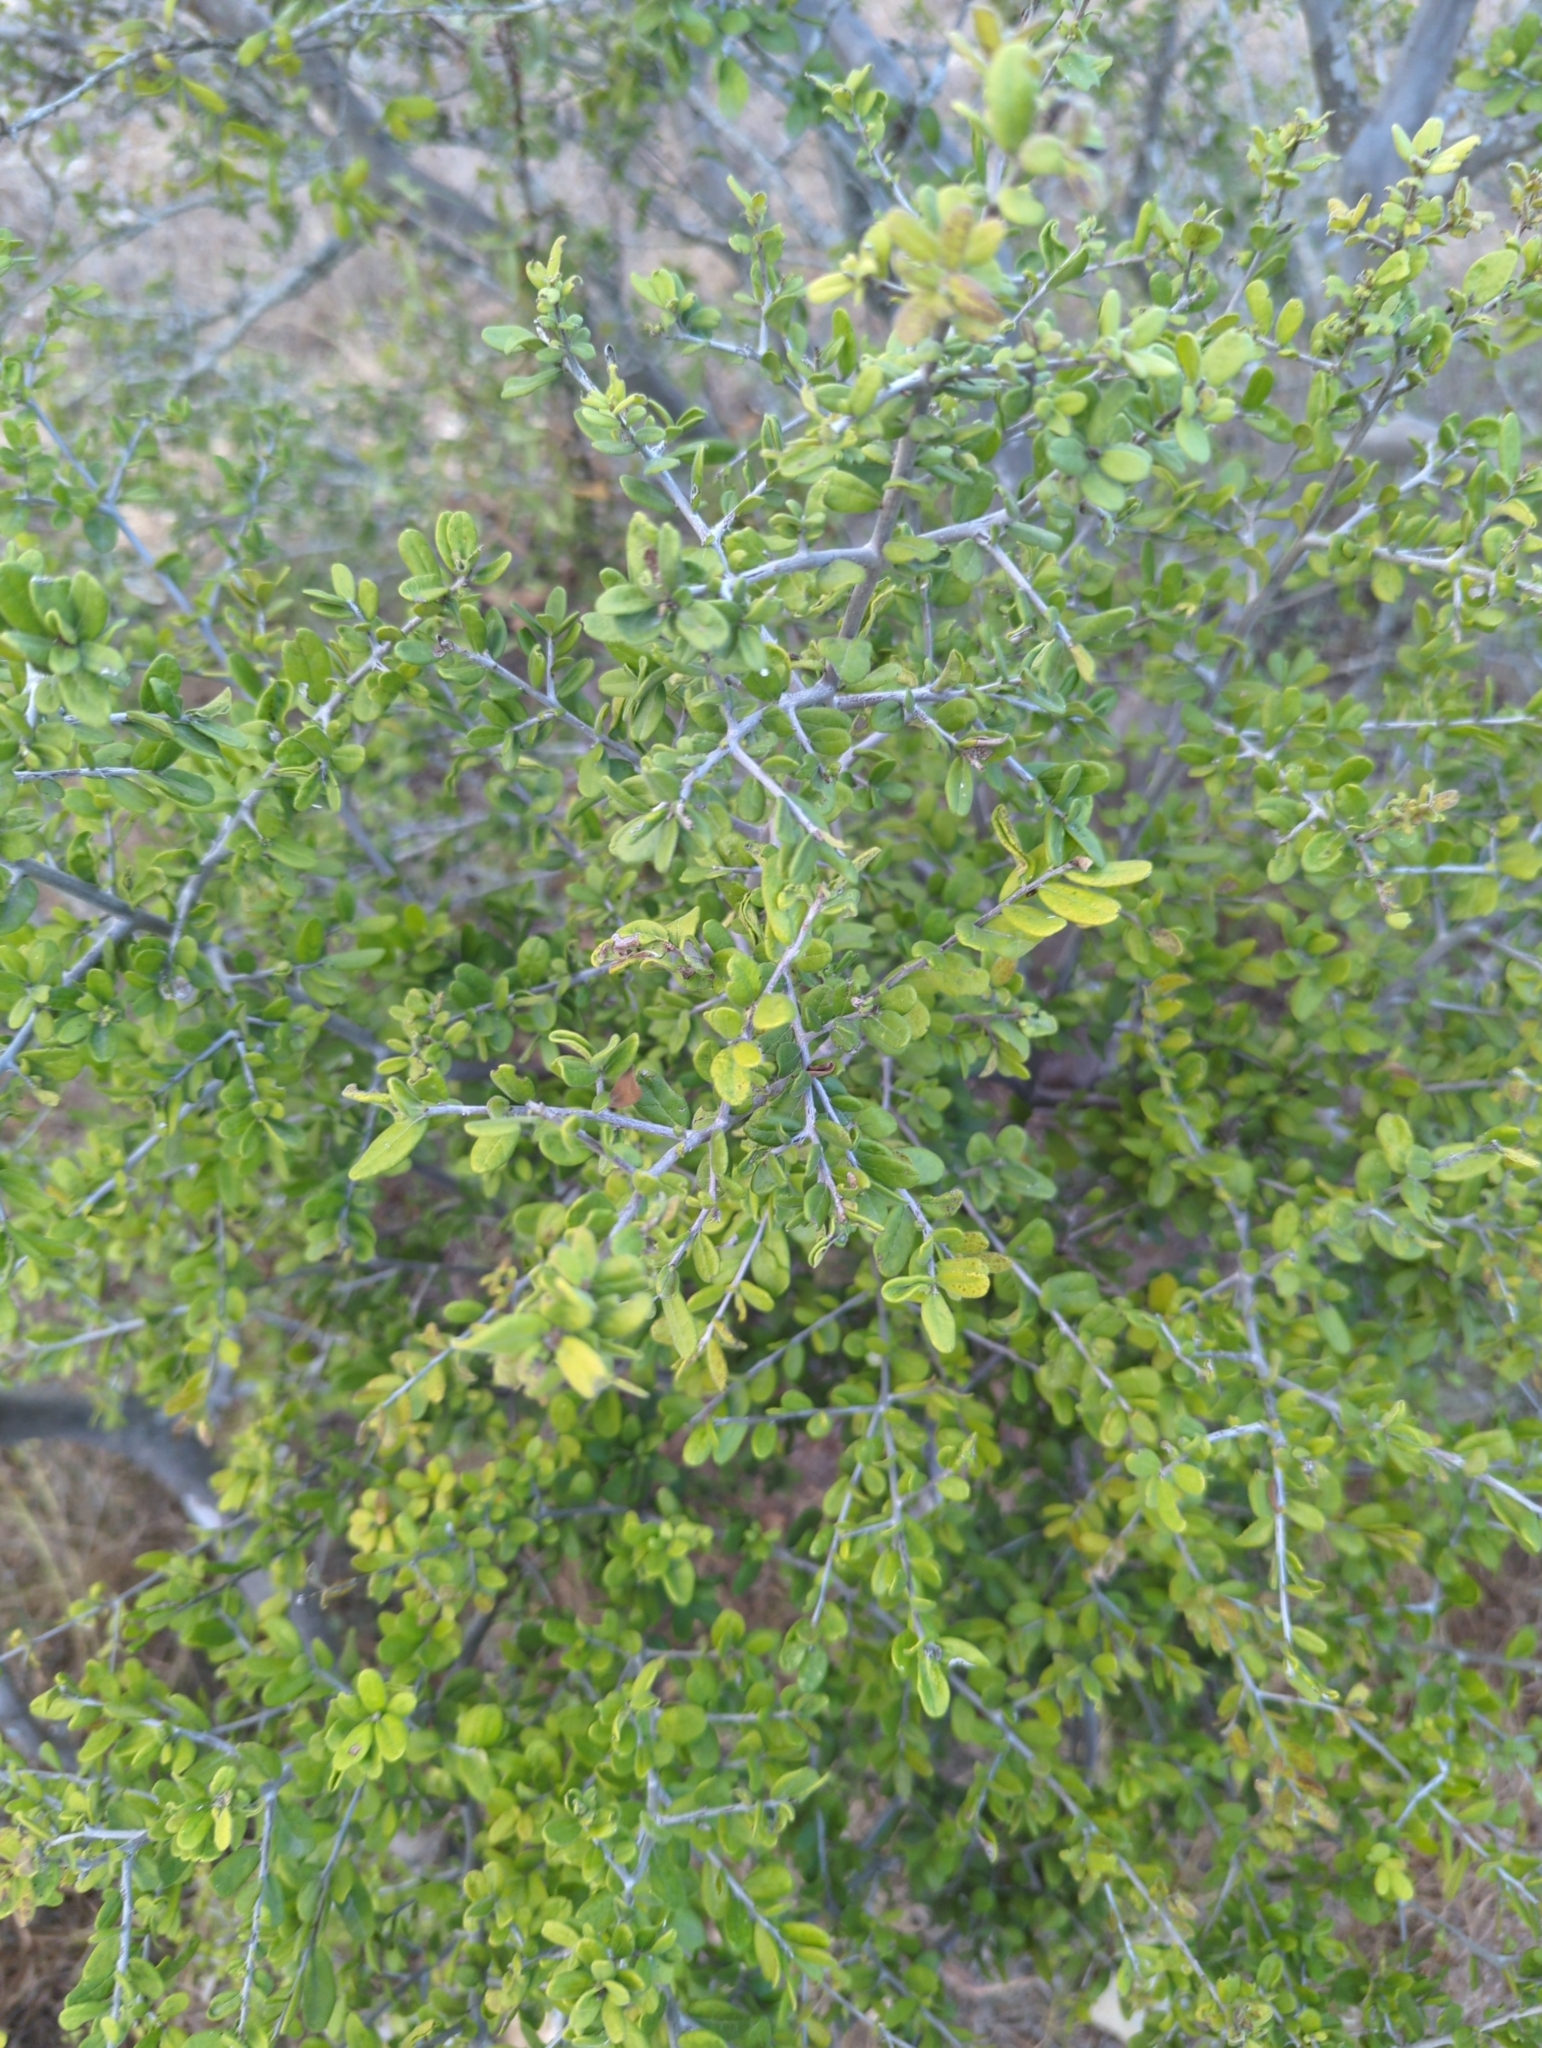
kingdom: Plantae
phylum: Tracheophyta
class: Magnoliopsida
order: Ericales
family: Ebenaceae
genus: Diospyros
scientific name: Diospyros texana
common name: Texas persimmon
